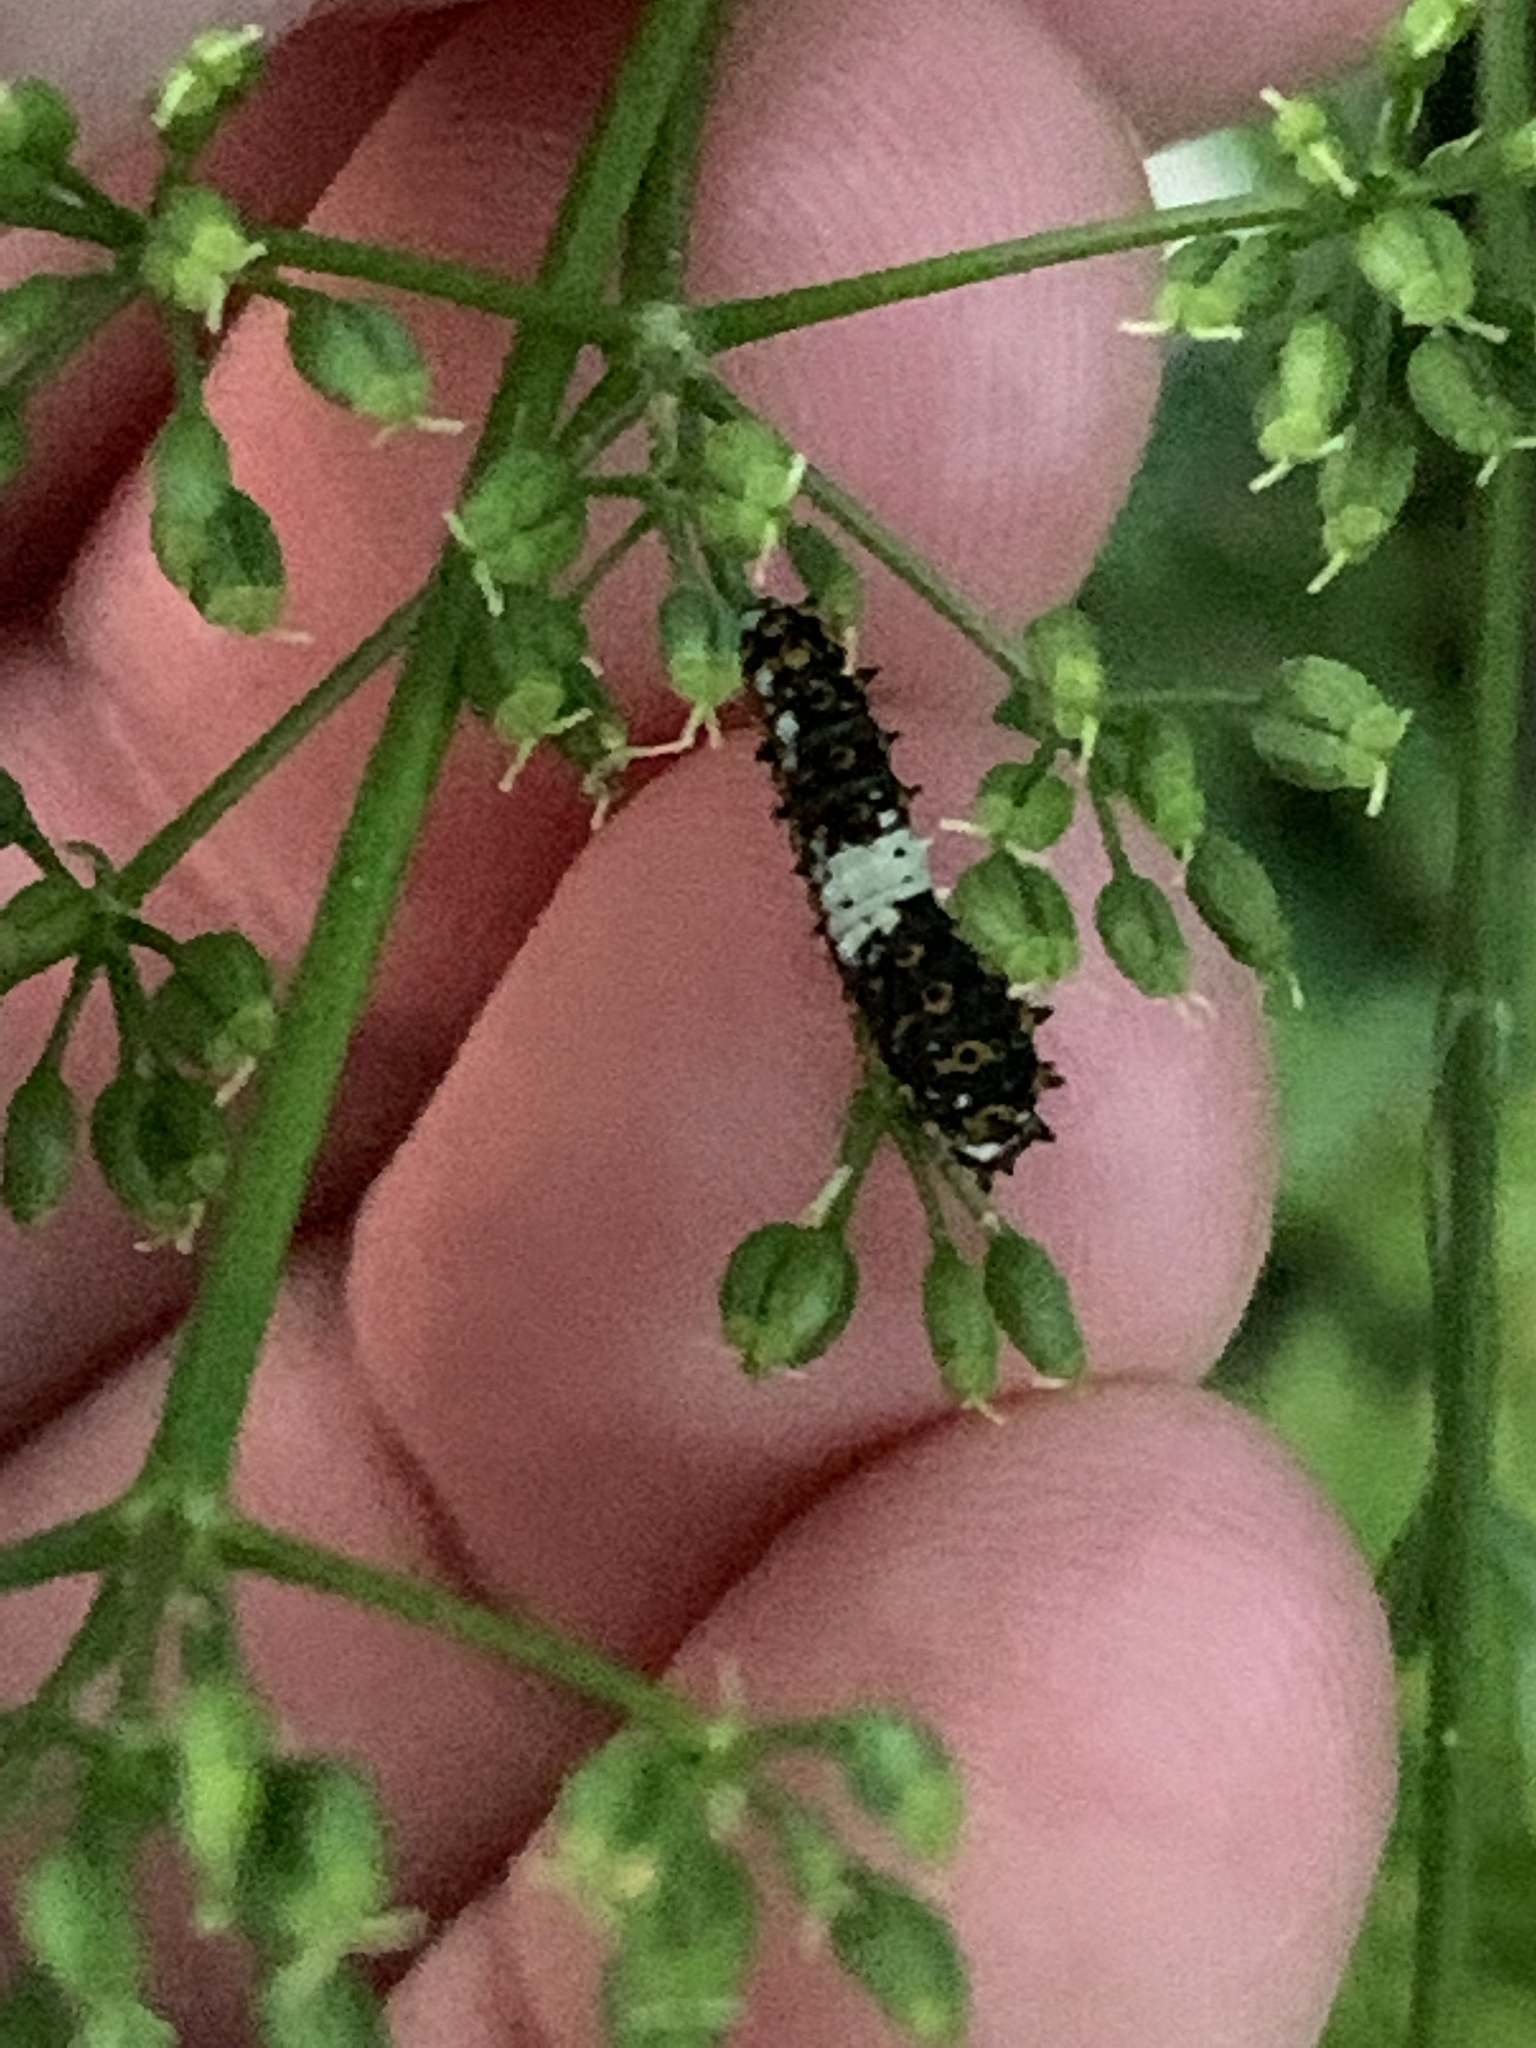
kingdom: Animalia
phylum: Arthropoda
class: Insecta
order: Lepidoptera
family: Papilionidae
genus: Papilio
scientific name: Papilio polyxenes
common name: Black swallowtail
